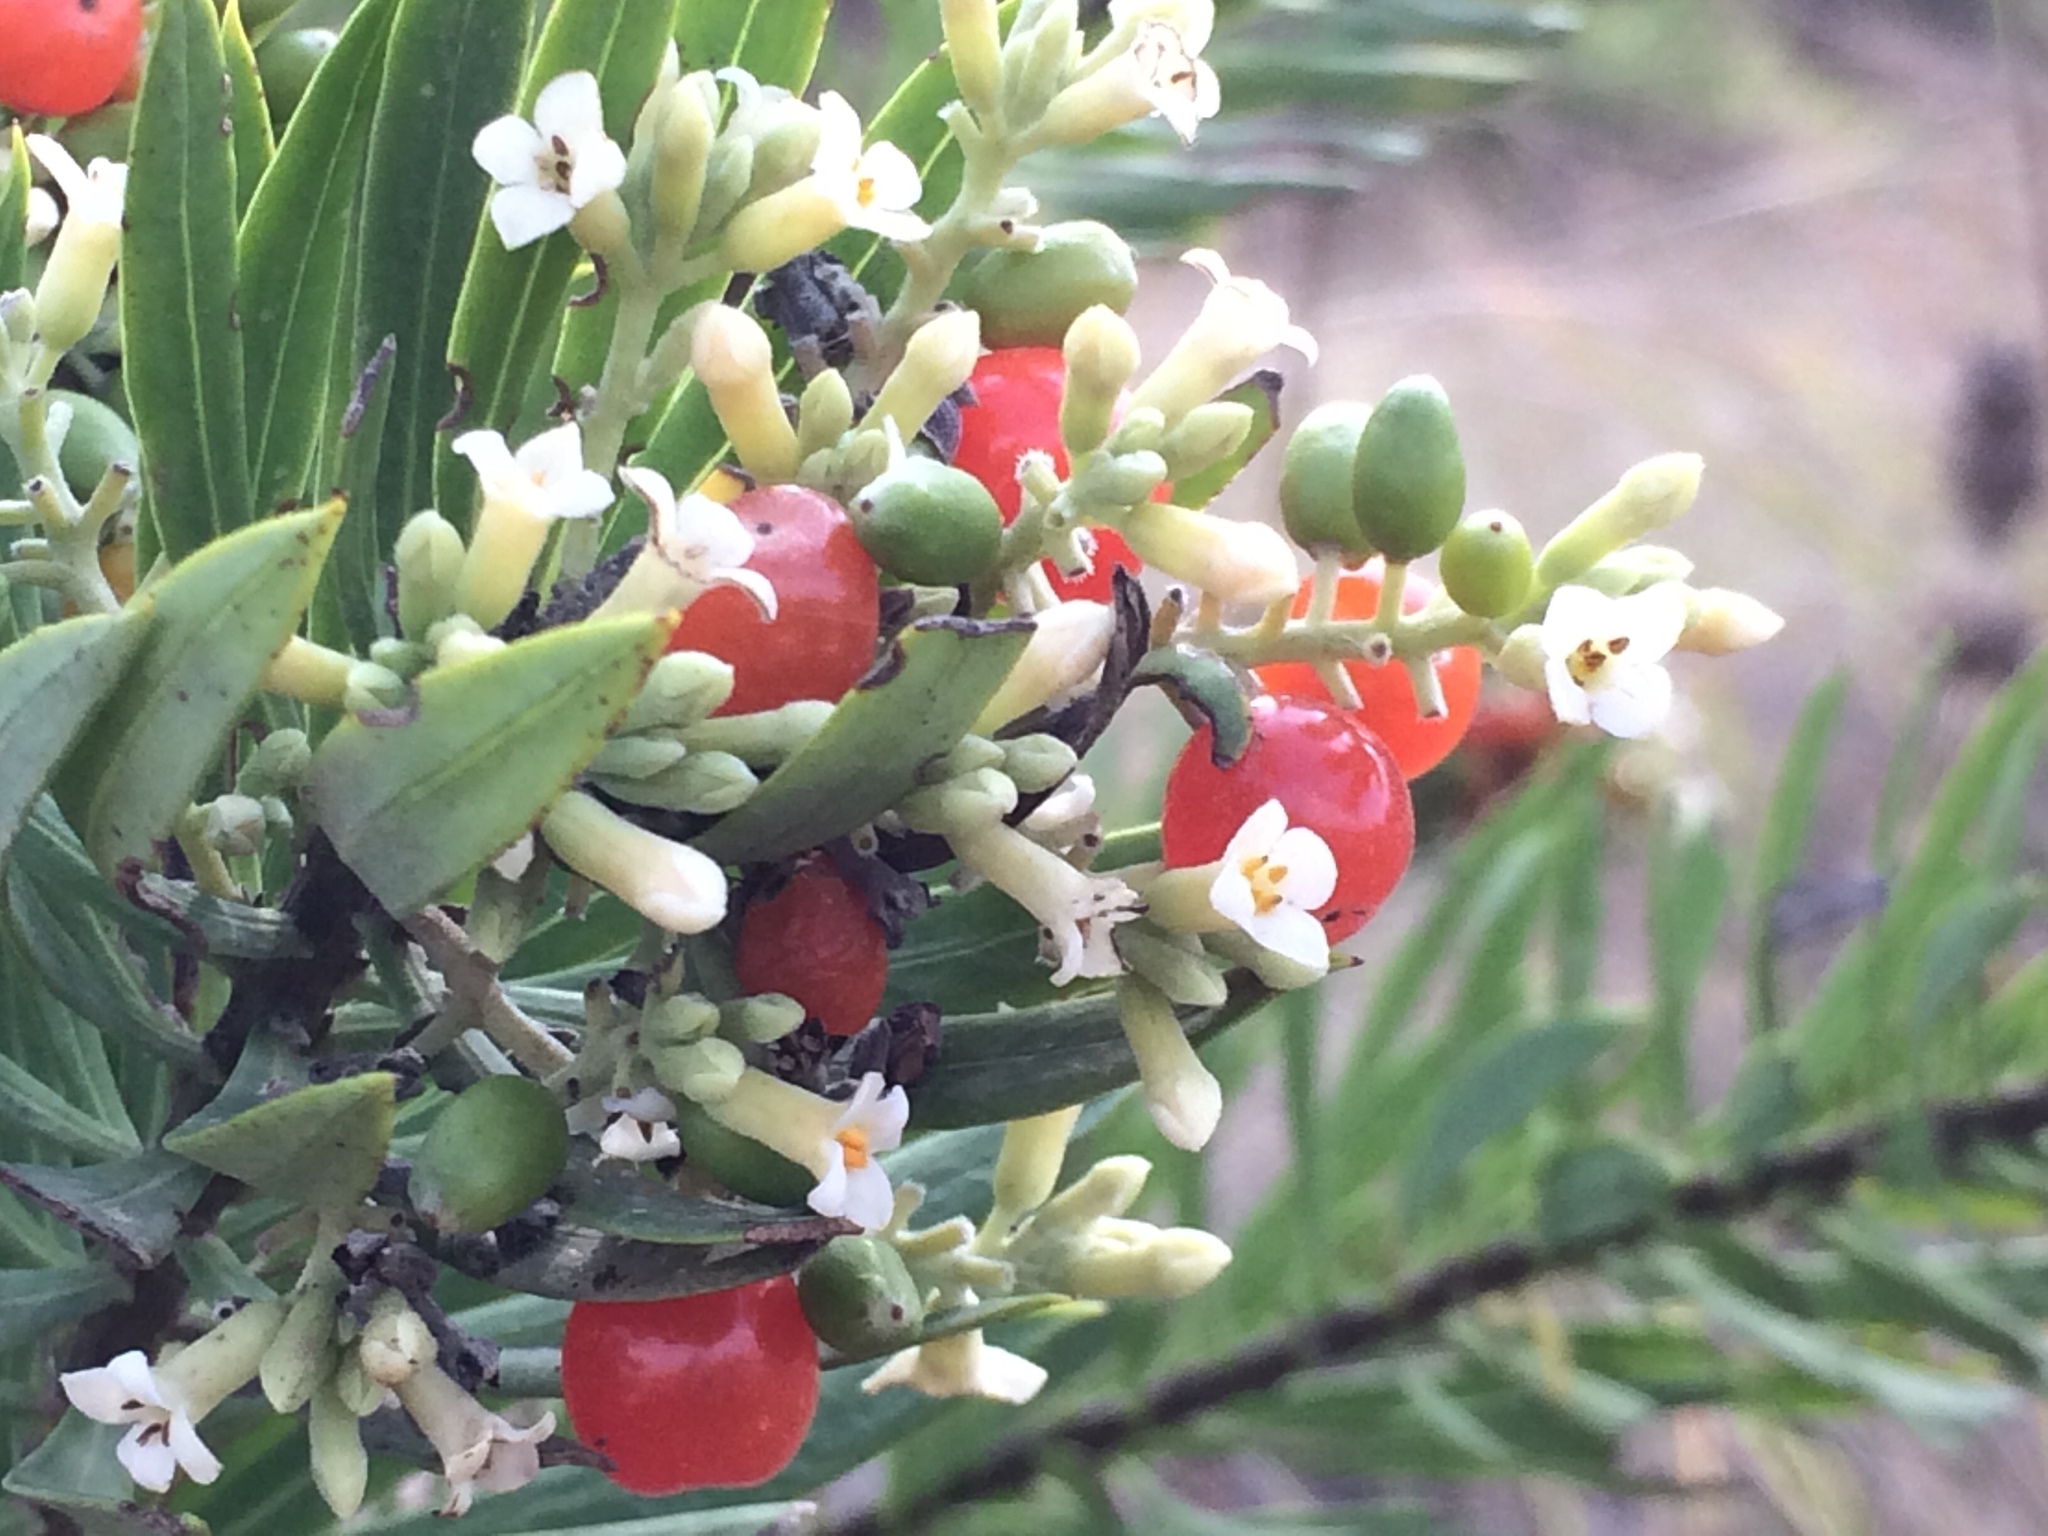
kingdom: Plantae
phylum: Tracheophyta
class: Magnoliopsida
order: Malvales
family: Thymelaeaceae
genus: Daphne
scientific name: Daphne gnidium
